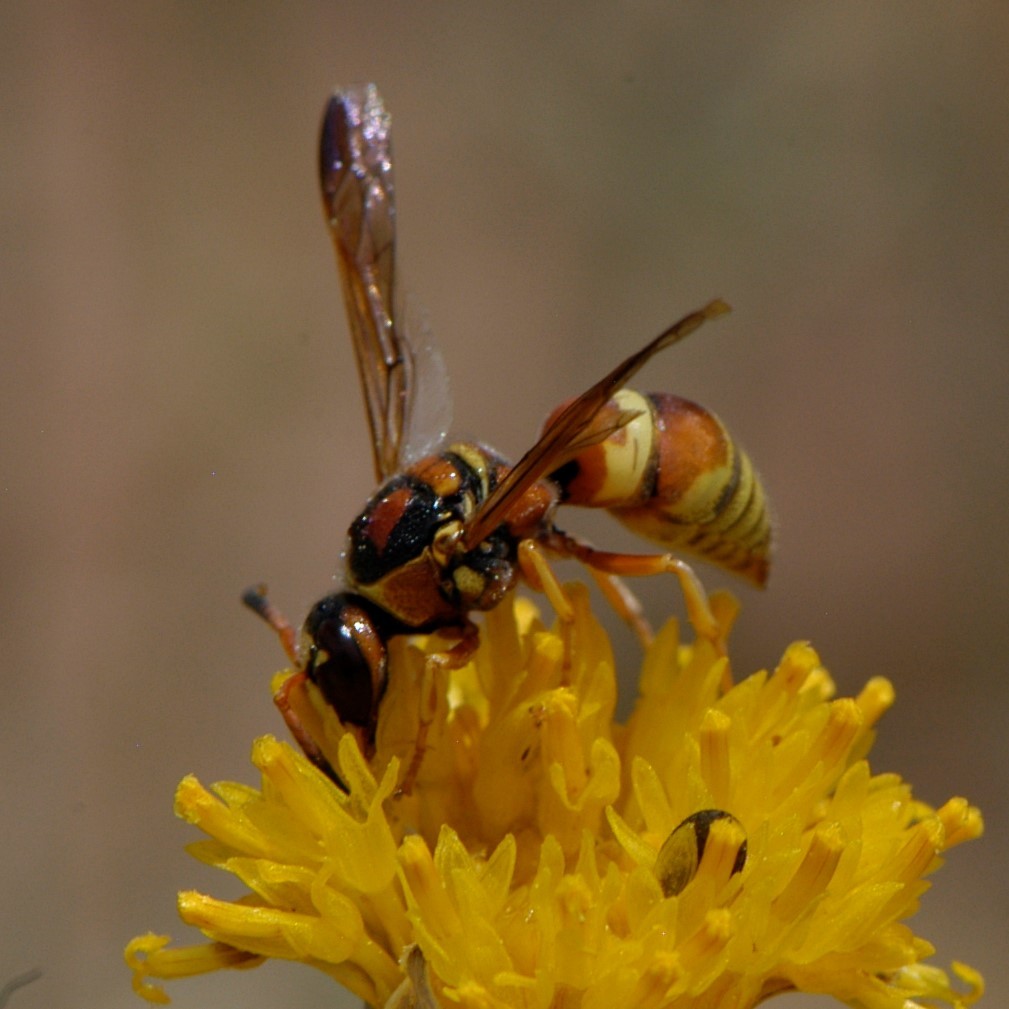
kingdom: Animalia
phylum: Arthropoda
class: Insecta
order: Hymenoptera
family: Eumenidae
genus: Euodynerus
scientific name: Euodynerus pratensis
